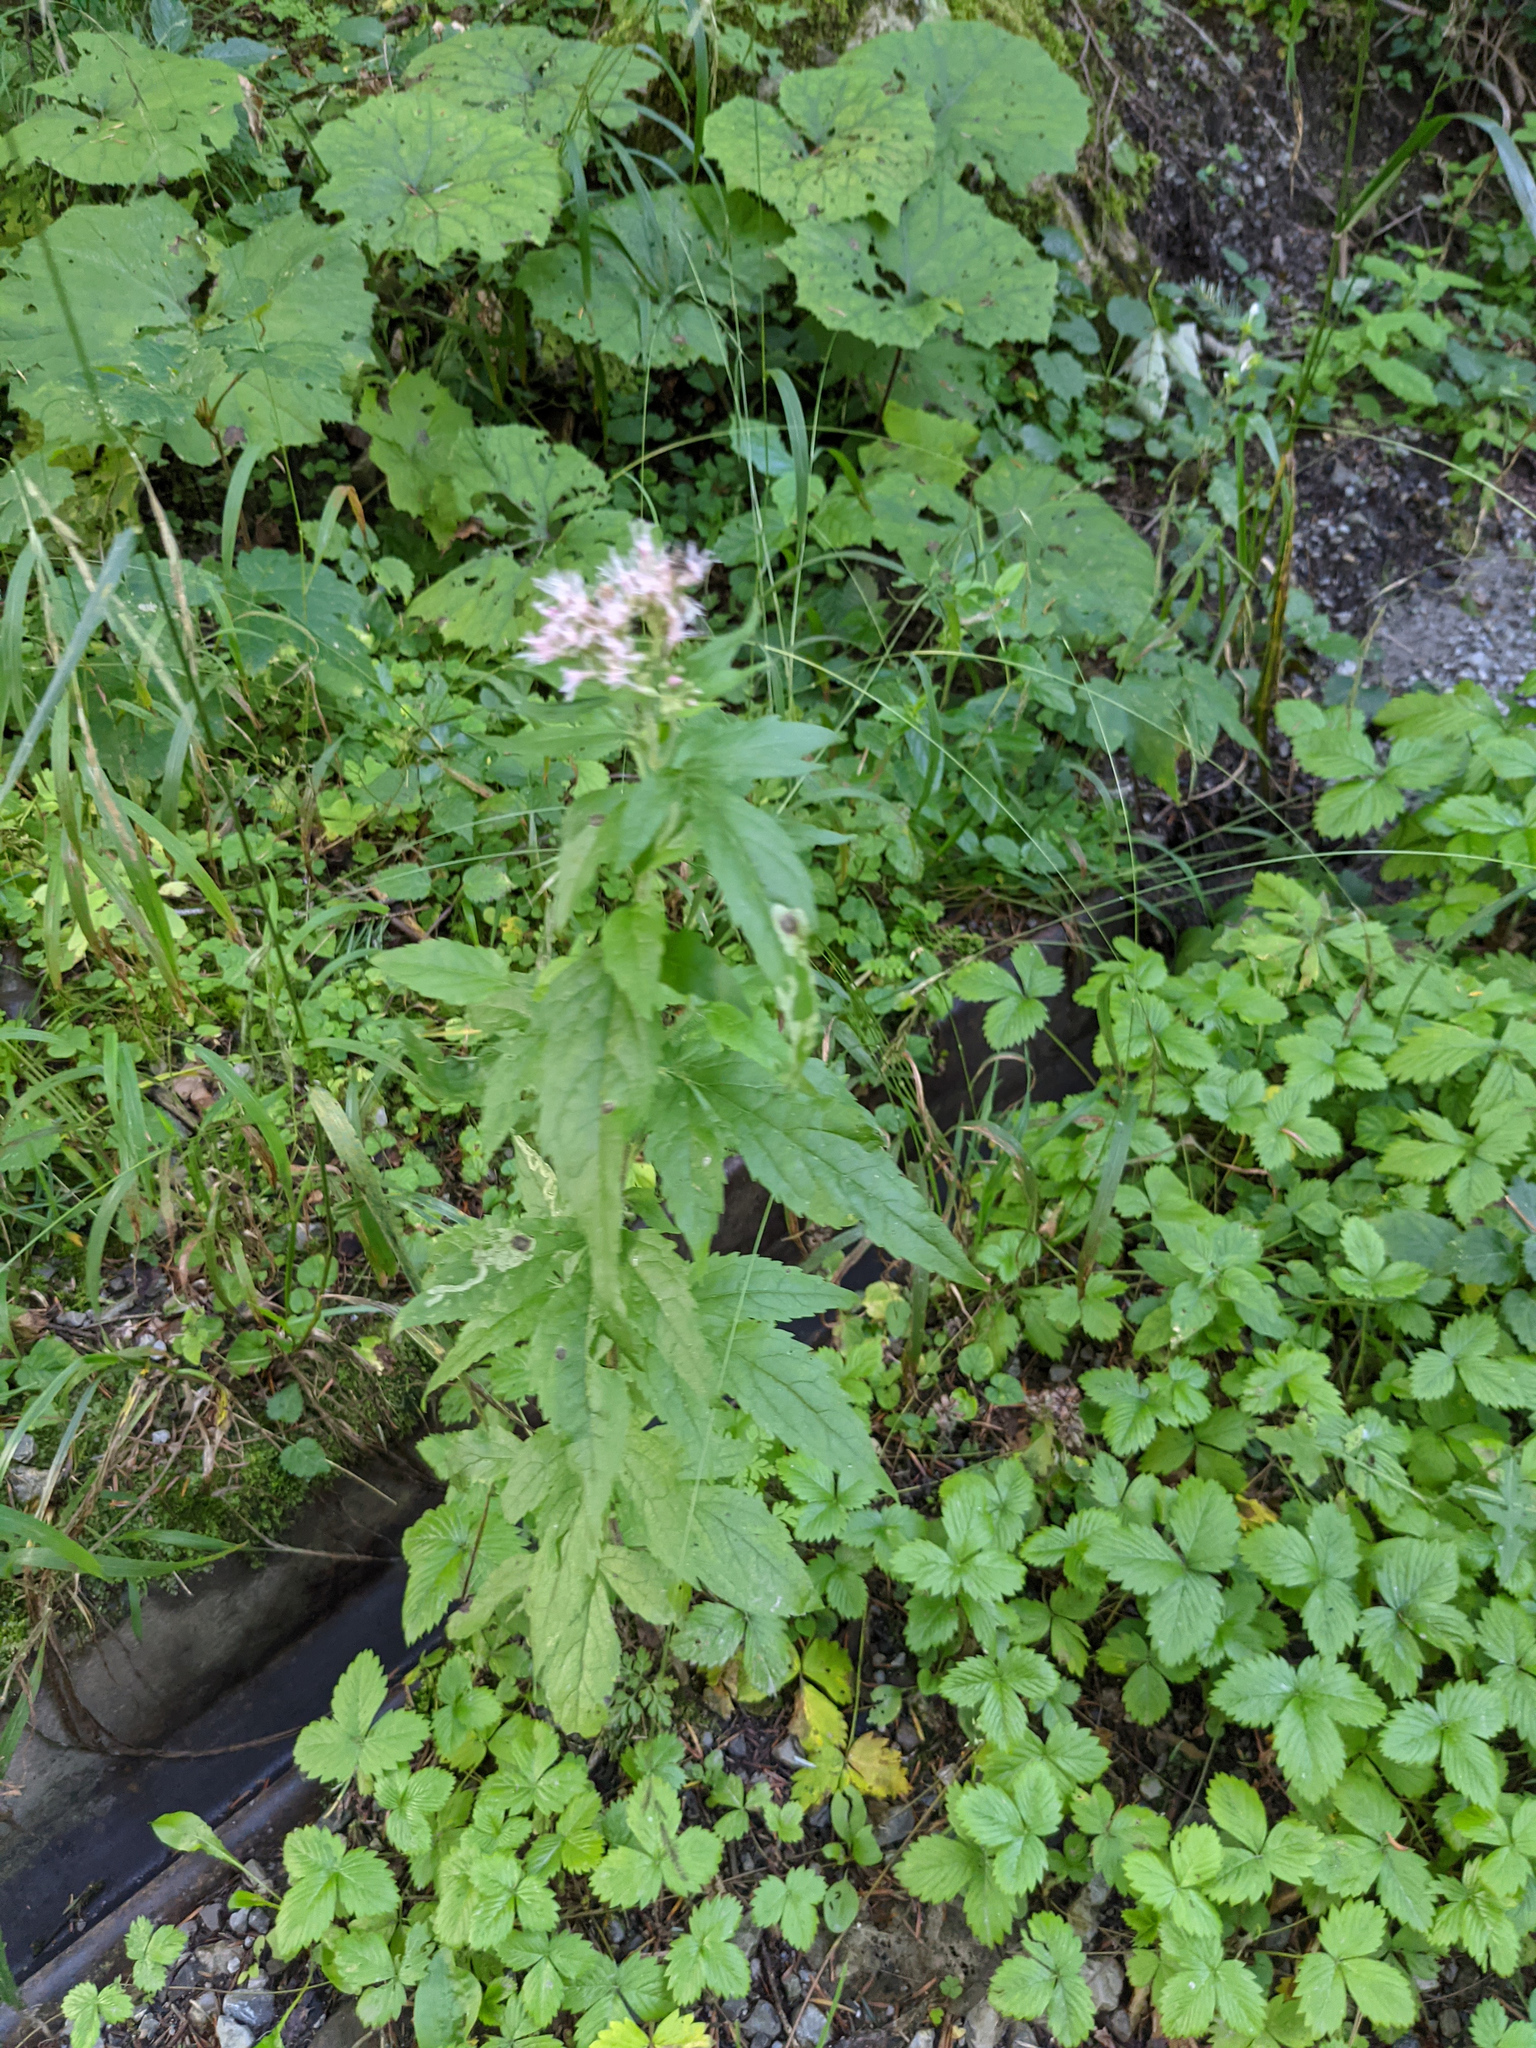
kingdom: Plantae
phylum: Tracheophyta
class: Magnoliopsida
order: Asterales
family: Asteraceae
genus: Eupatorium
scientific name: Eupatorium cannabinum
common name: Hemp-agrimony
